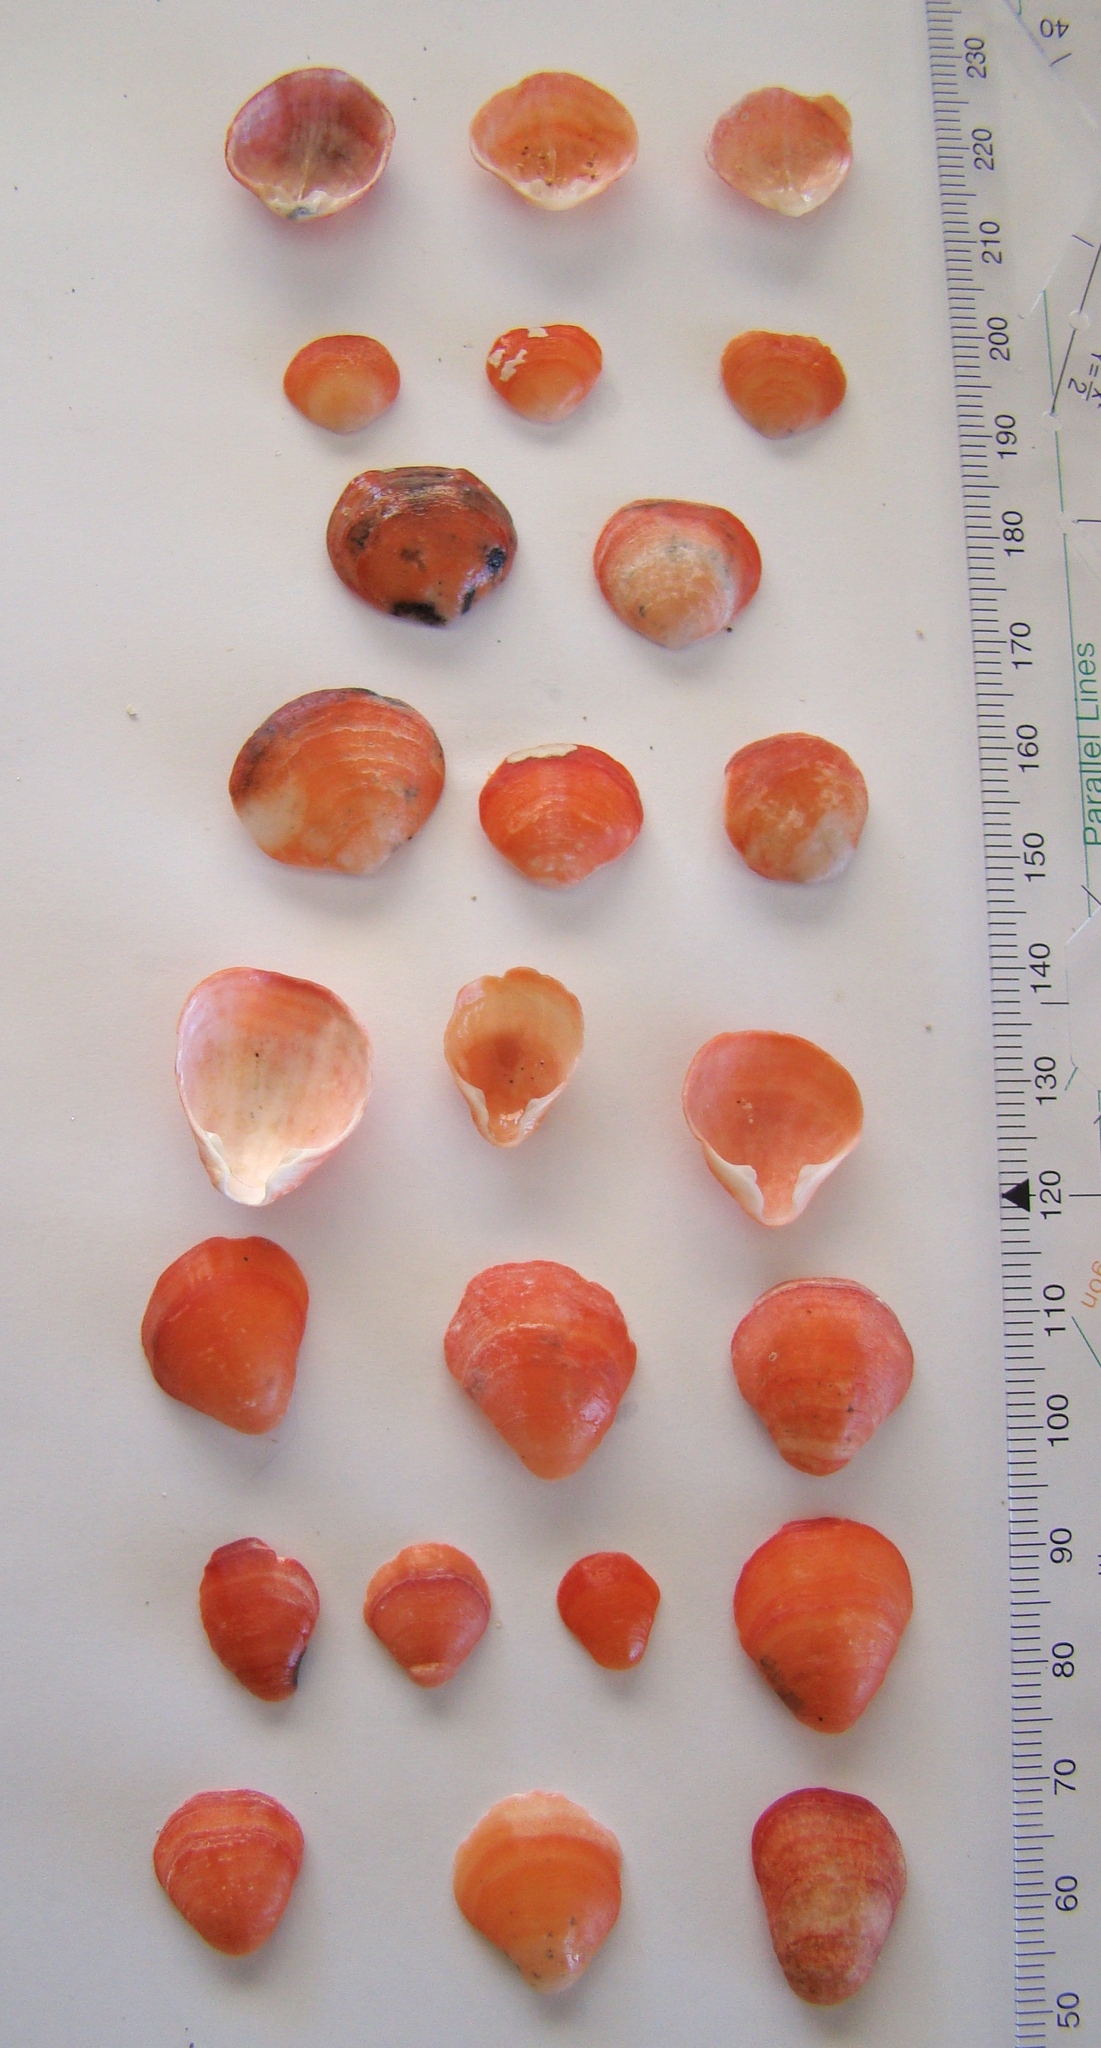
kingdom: Animalia
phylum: Brachiopoda
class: Rhynchonellata
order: Terebratulida
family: Terebratellidae
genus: Calloria
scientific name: Calloria inconspicua
